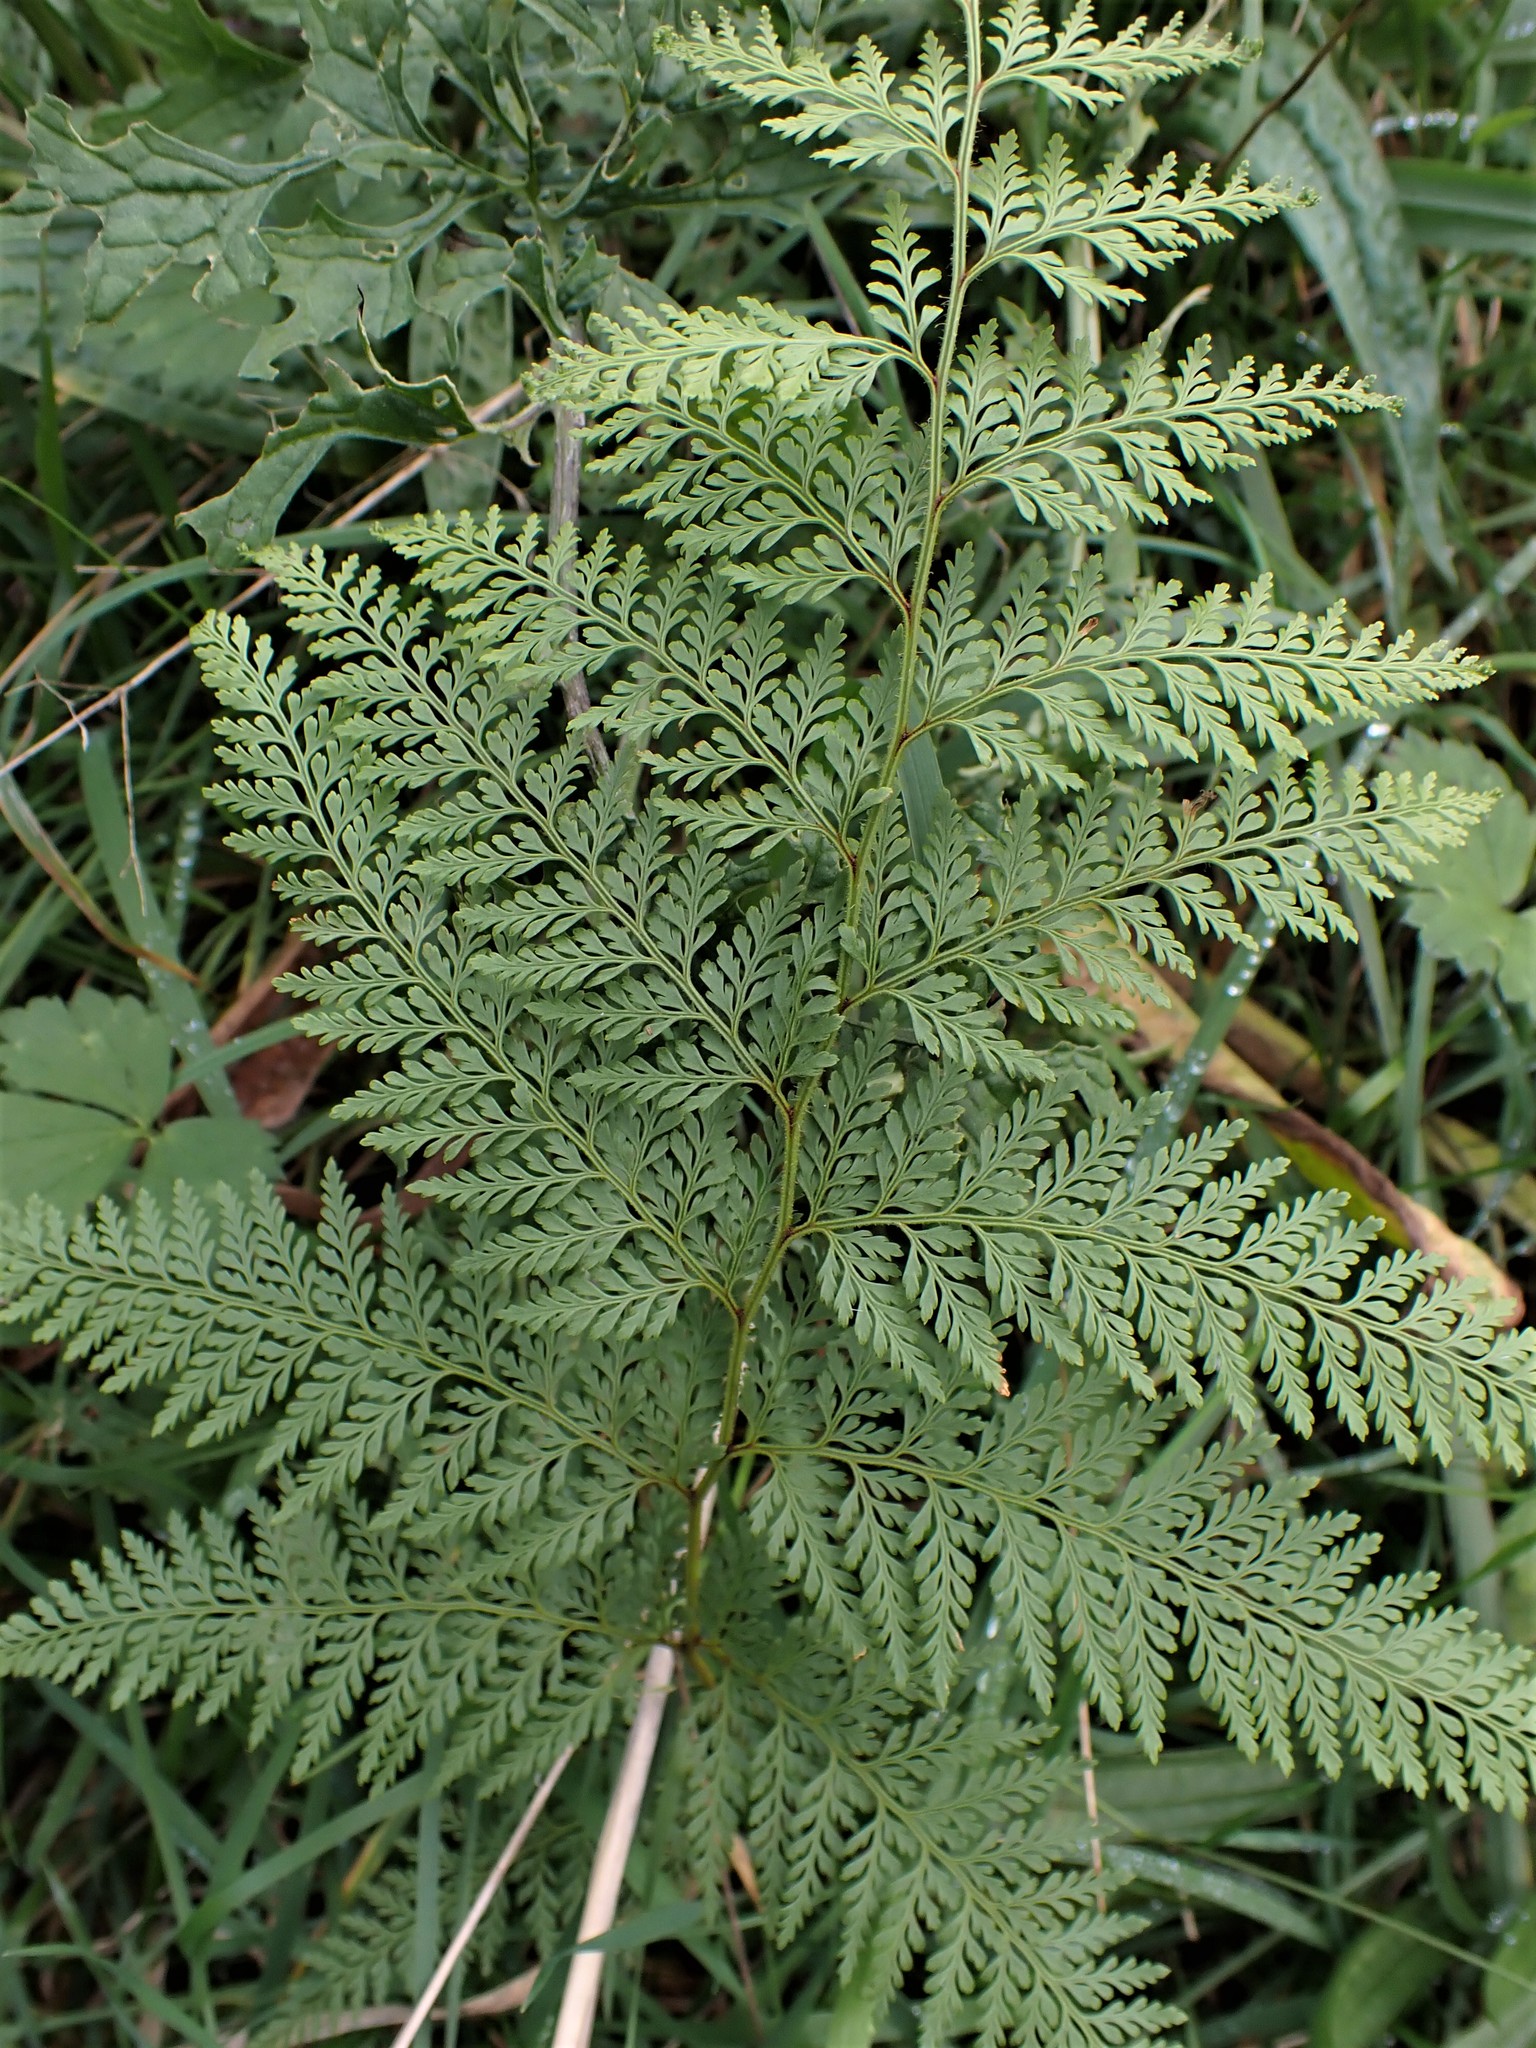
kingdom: Plantae
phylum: Tracheophyta
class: Polypodiopsida
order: Polypodiales
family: Dennstaedtiaceae
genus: Paesia
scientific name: Paesia scaberula
